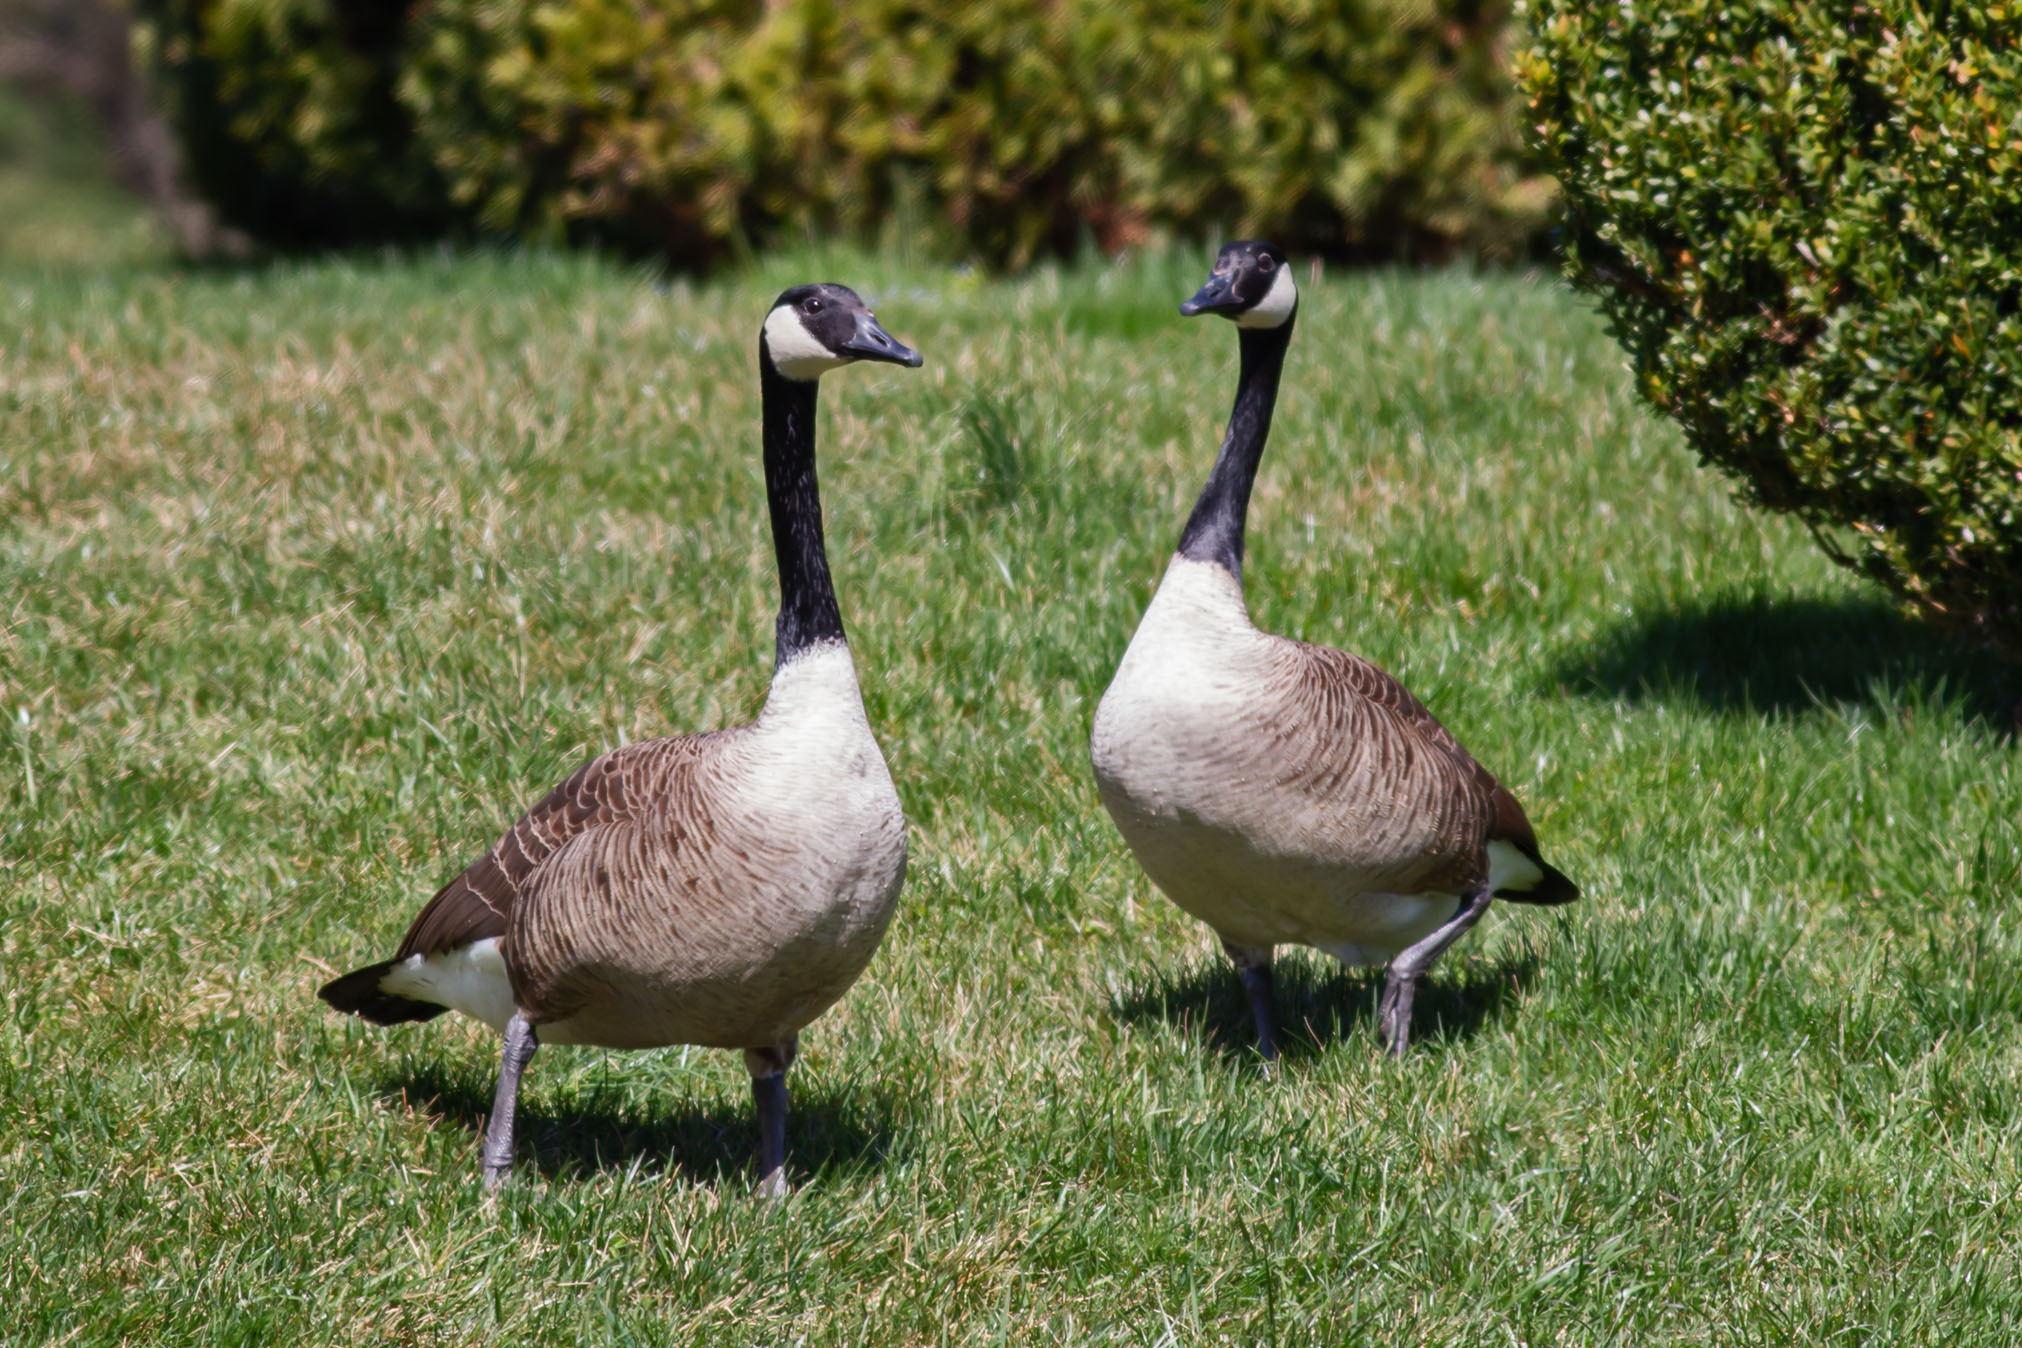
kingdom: Animalia
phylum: Chordata
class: Aves
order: Anseriformes
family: Anatidae
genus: Branta
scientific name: Branta canadensis
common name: Canada goose
